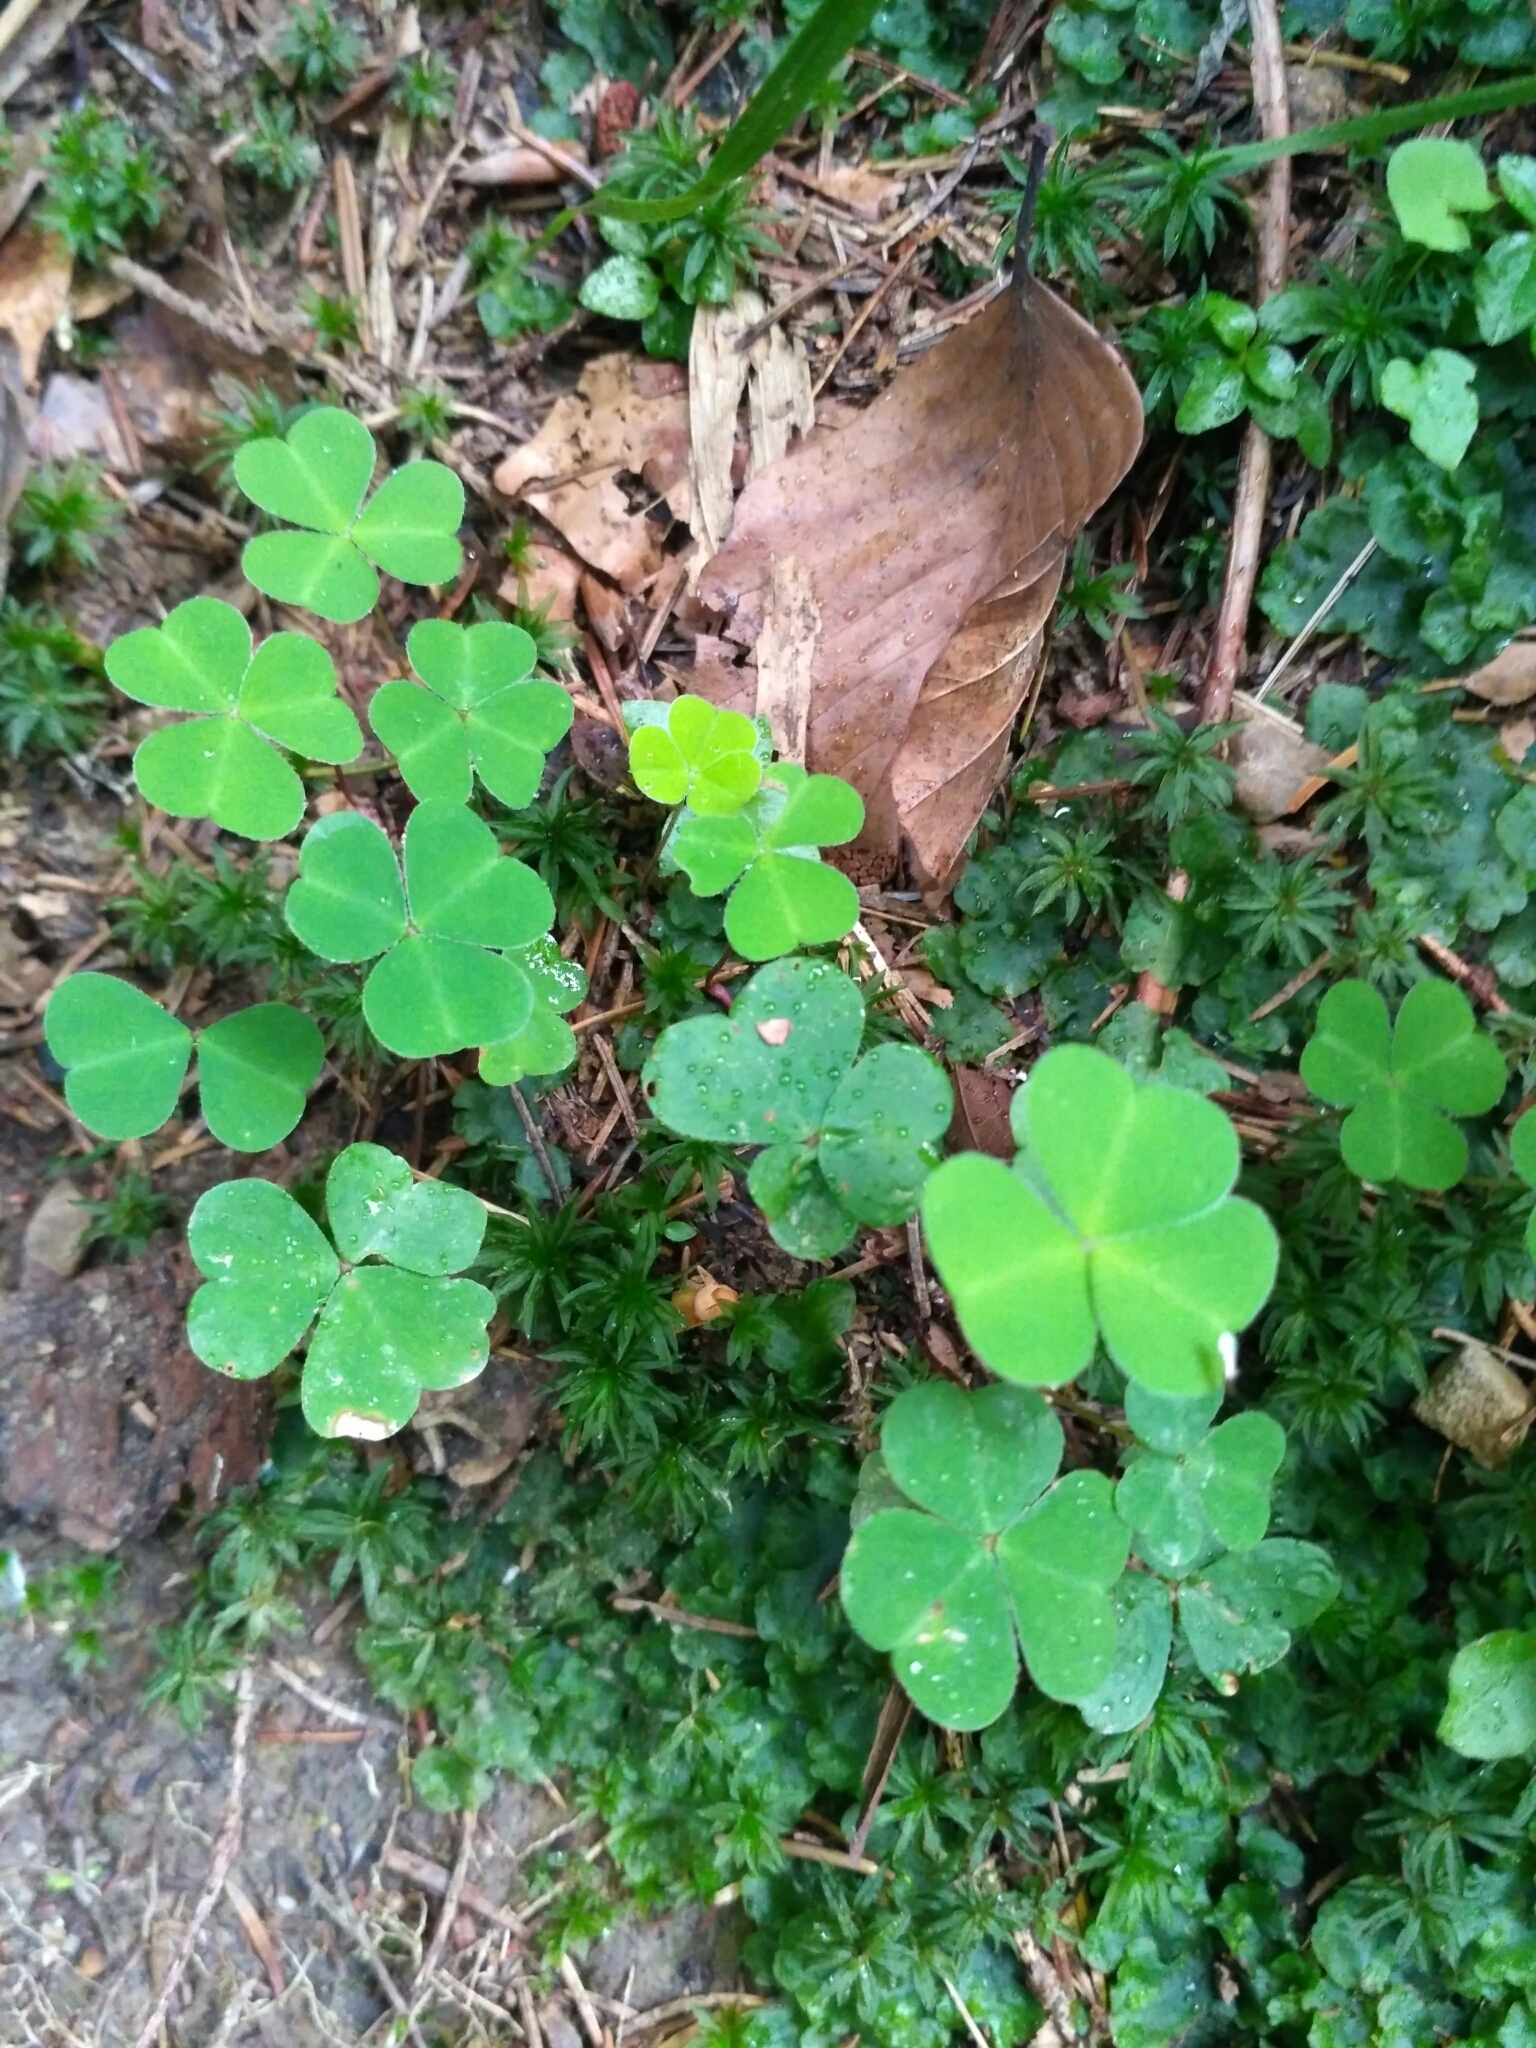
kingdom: Plantae
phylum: Tracheophyta
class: Magnoliopsida
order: Oxalidales
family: Oxalidaceae
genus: Oxalis
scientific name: Oxalis acetosella
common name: Wood-sorrel
